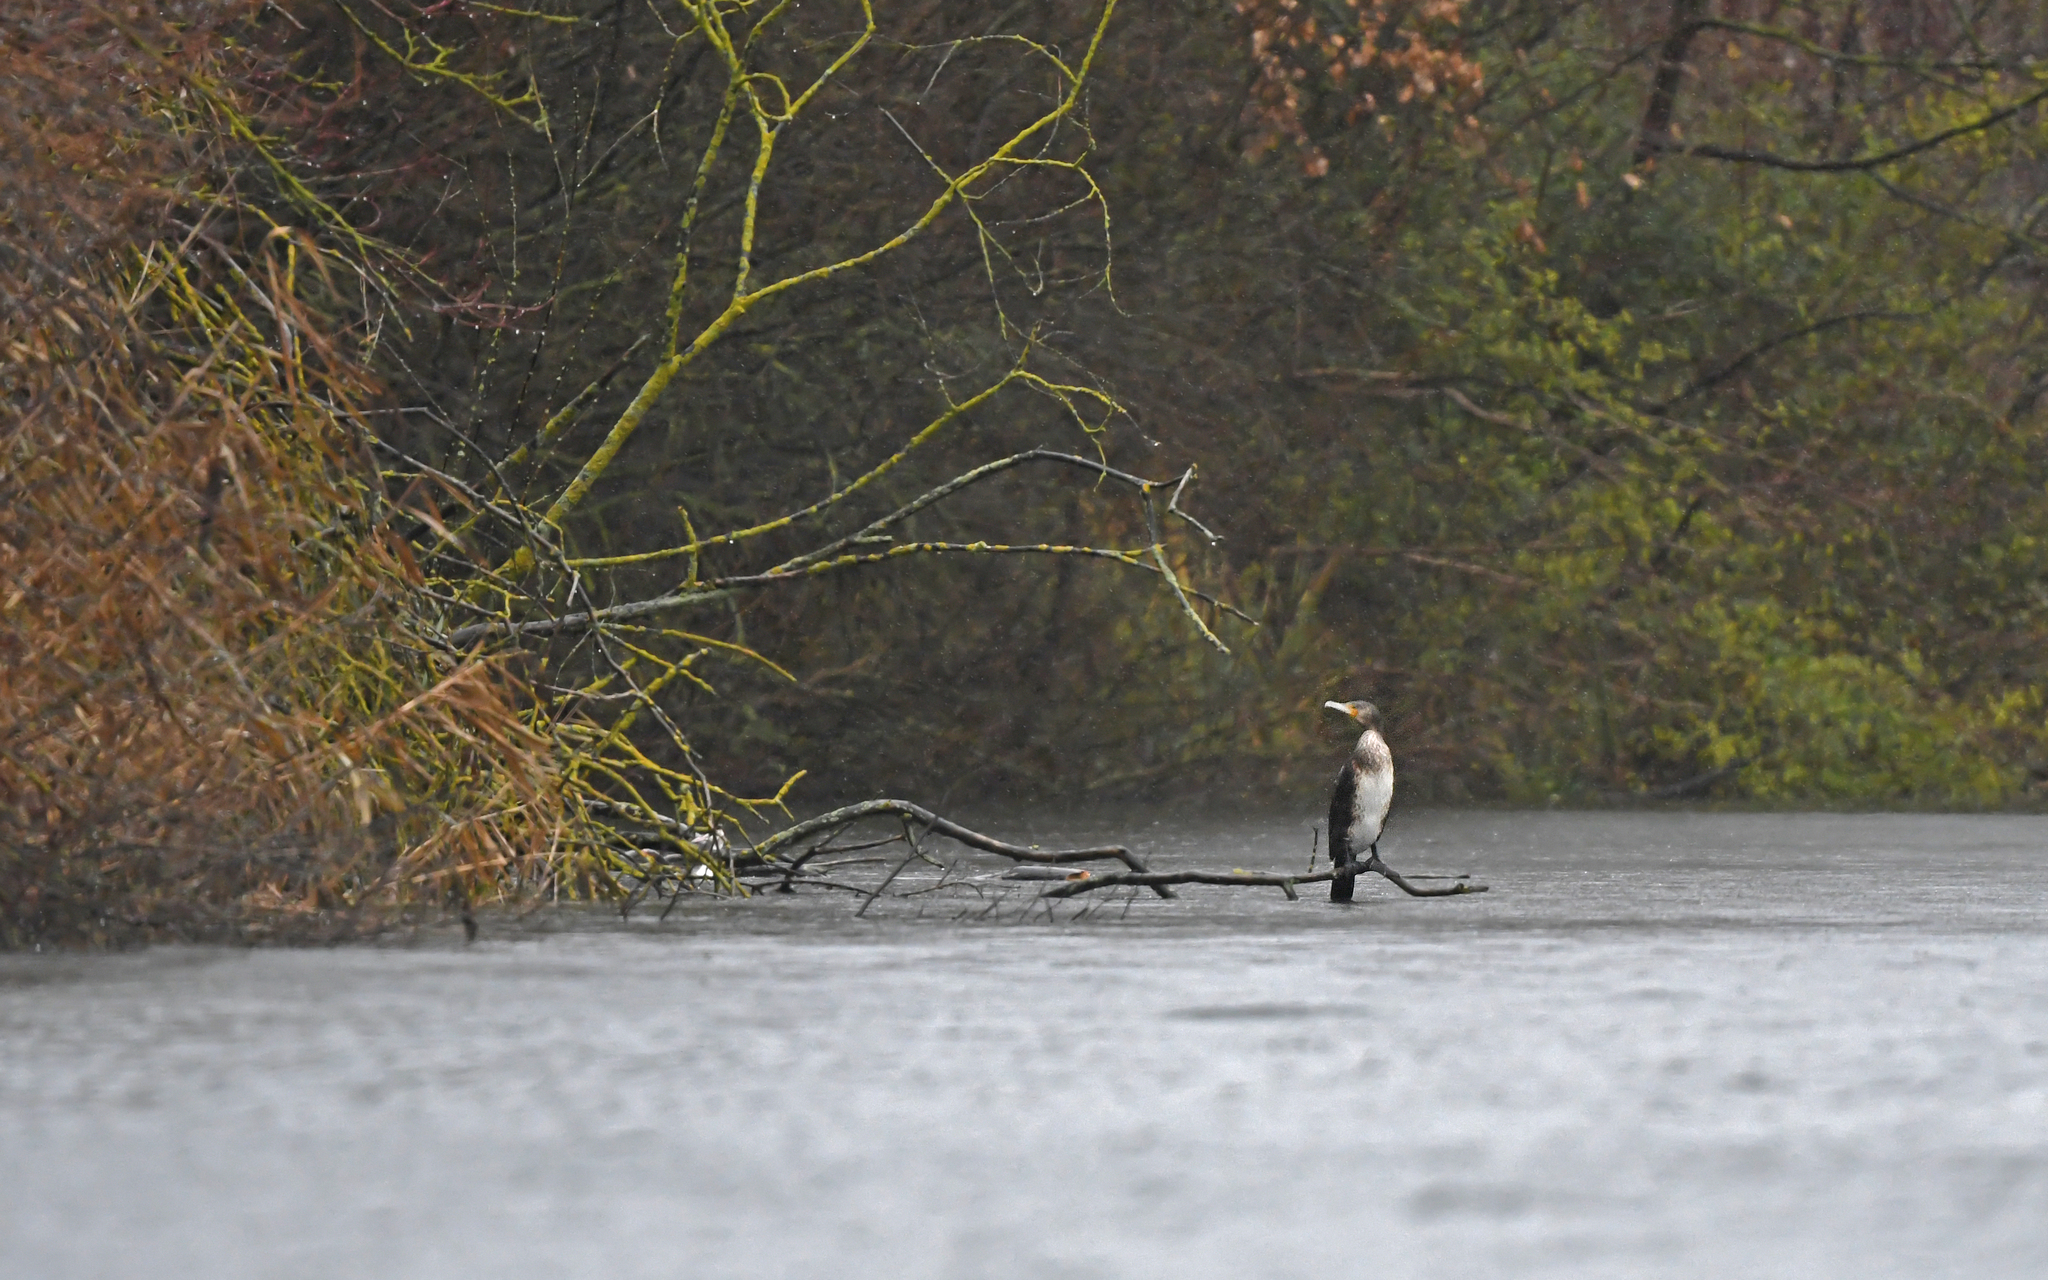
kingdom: Animalia
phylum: Chordata
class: Aves
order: Suliformes
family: Phalacrocoracidae
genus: Phalacrocorax
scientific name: Phalacrocorax carbo
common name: Great cormorant
